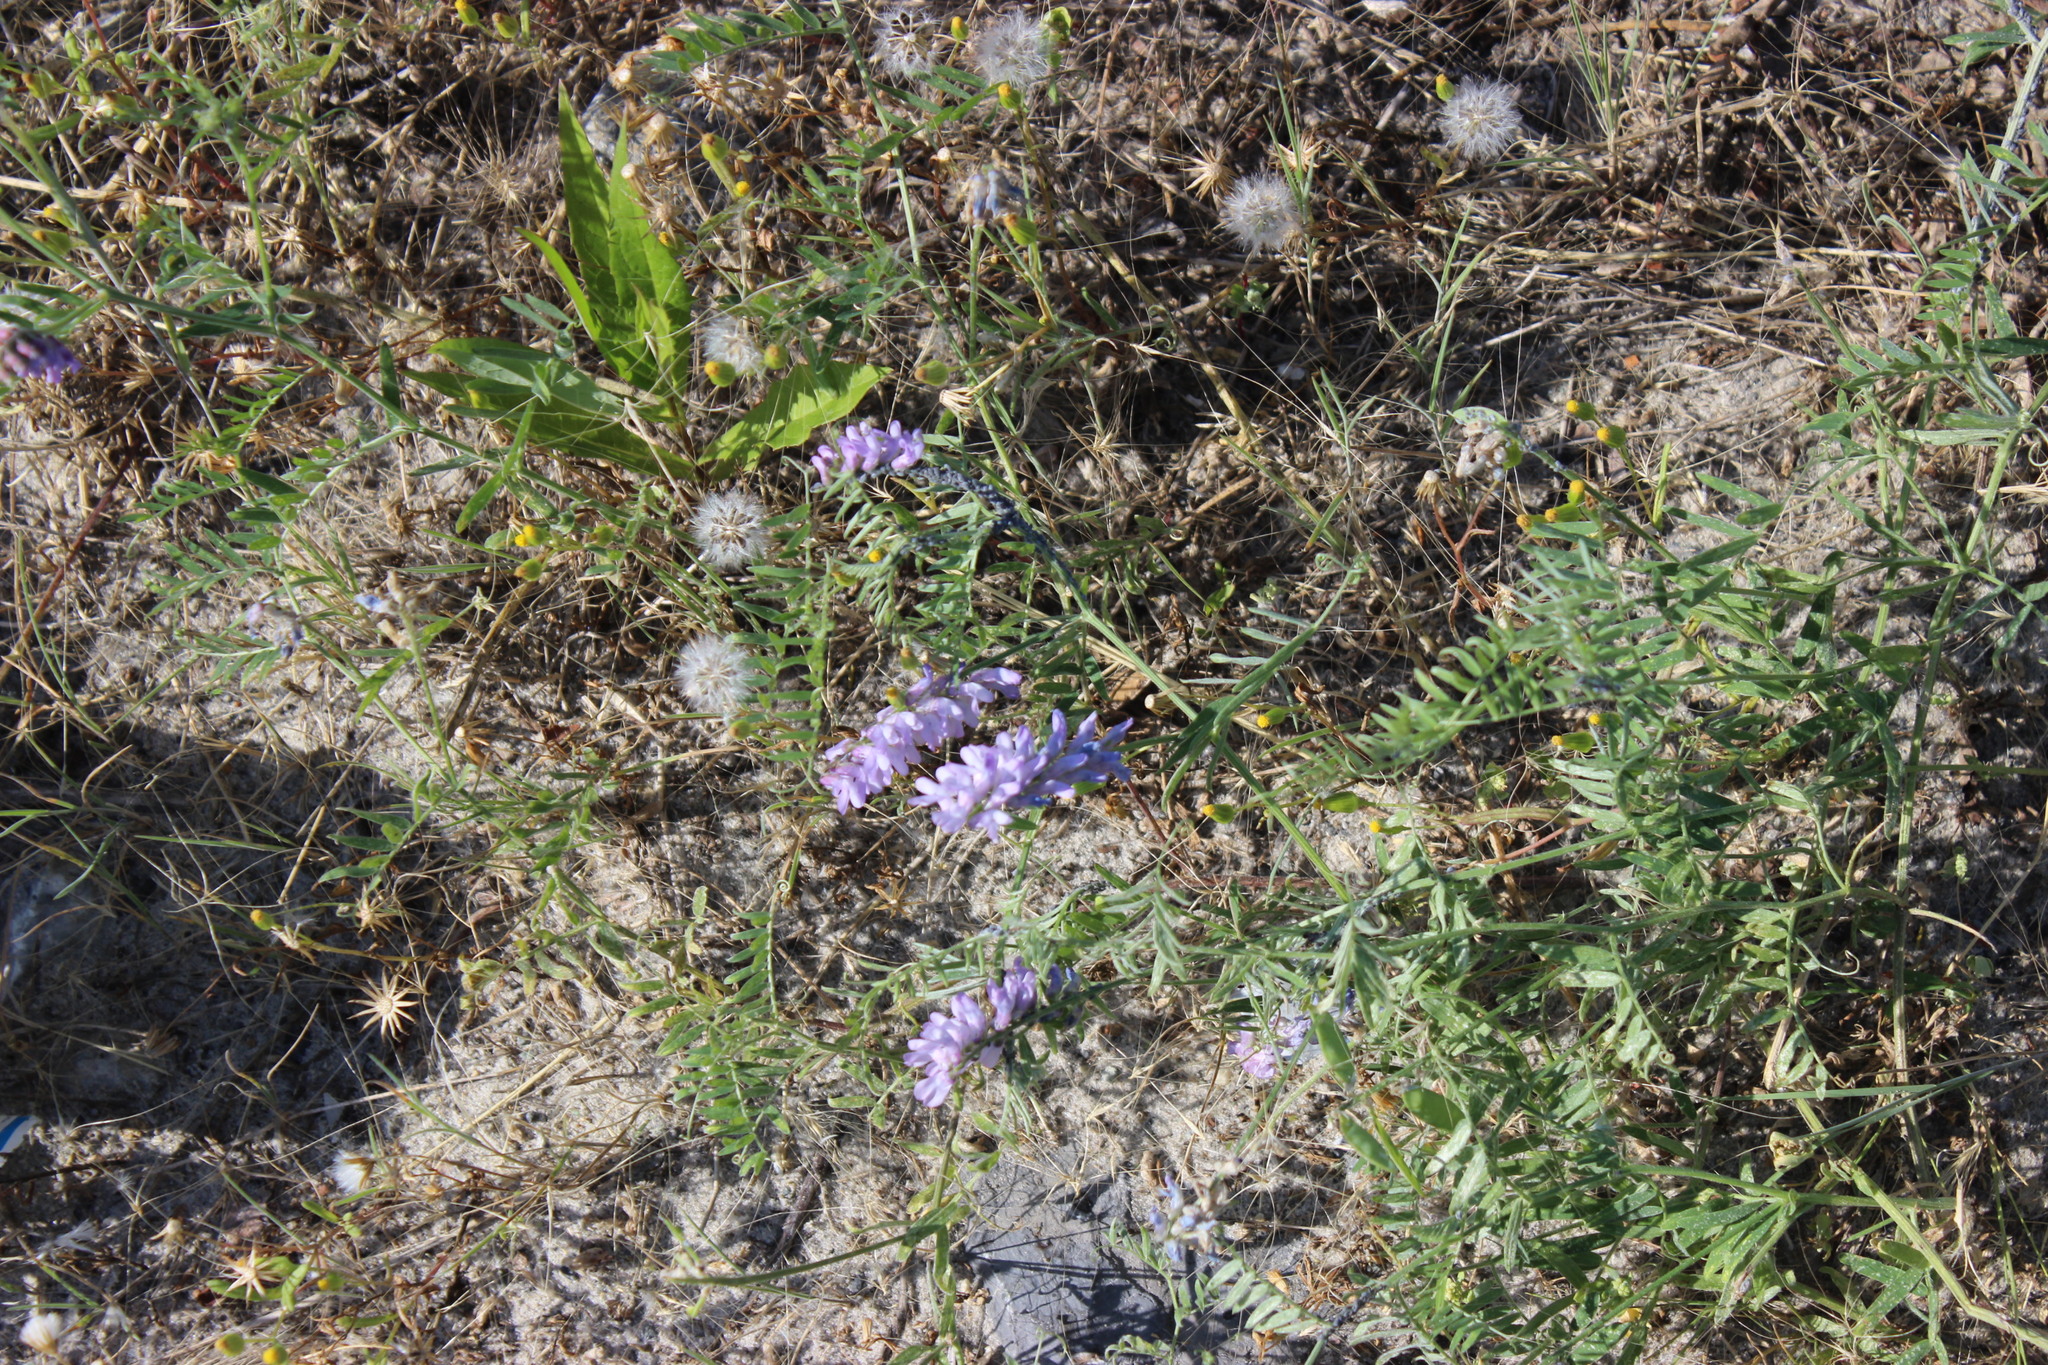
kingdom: Plantae
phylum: Tracheophyta
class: Magnoliopsida
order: Fabales
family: Fabaceae
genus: Vicia
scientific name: Vicia cracca
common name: Bird vetch
